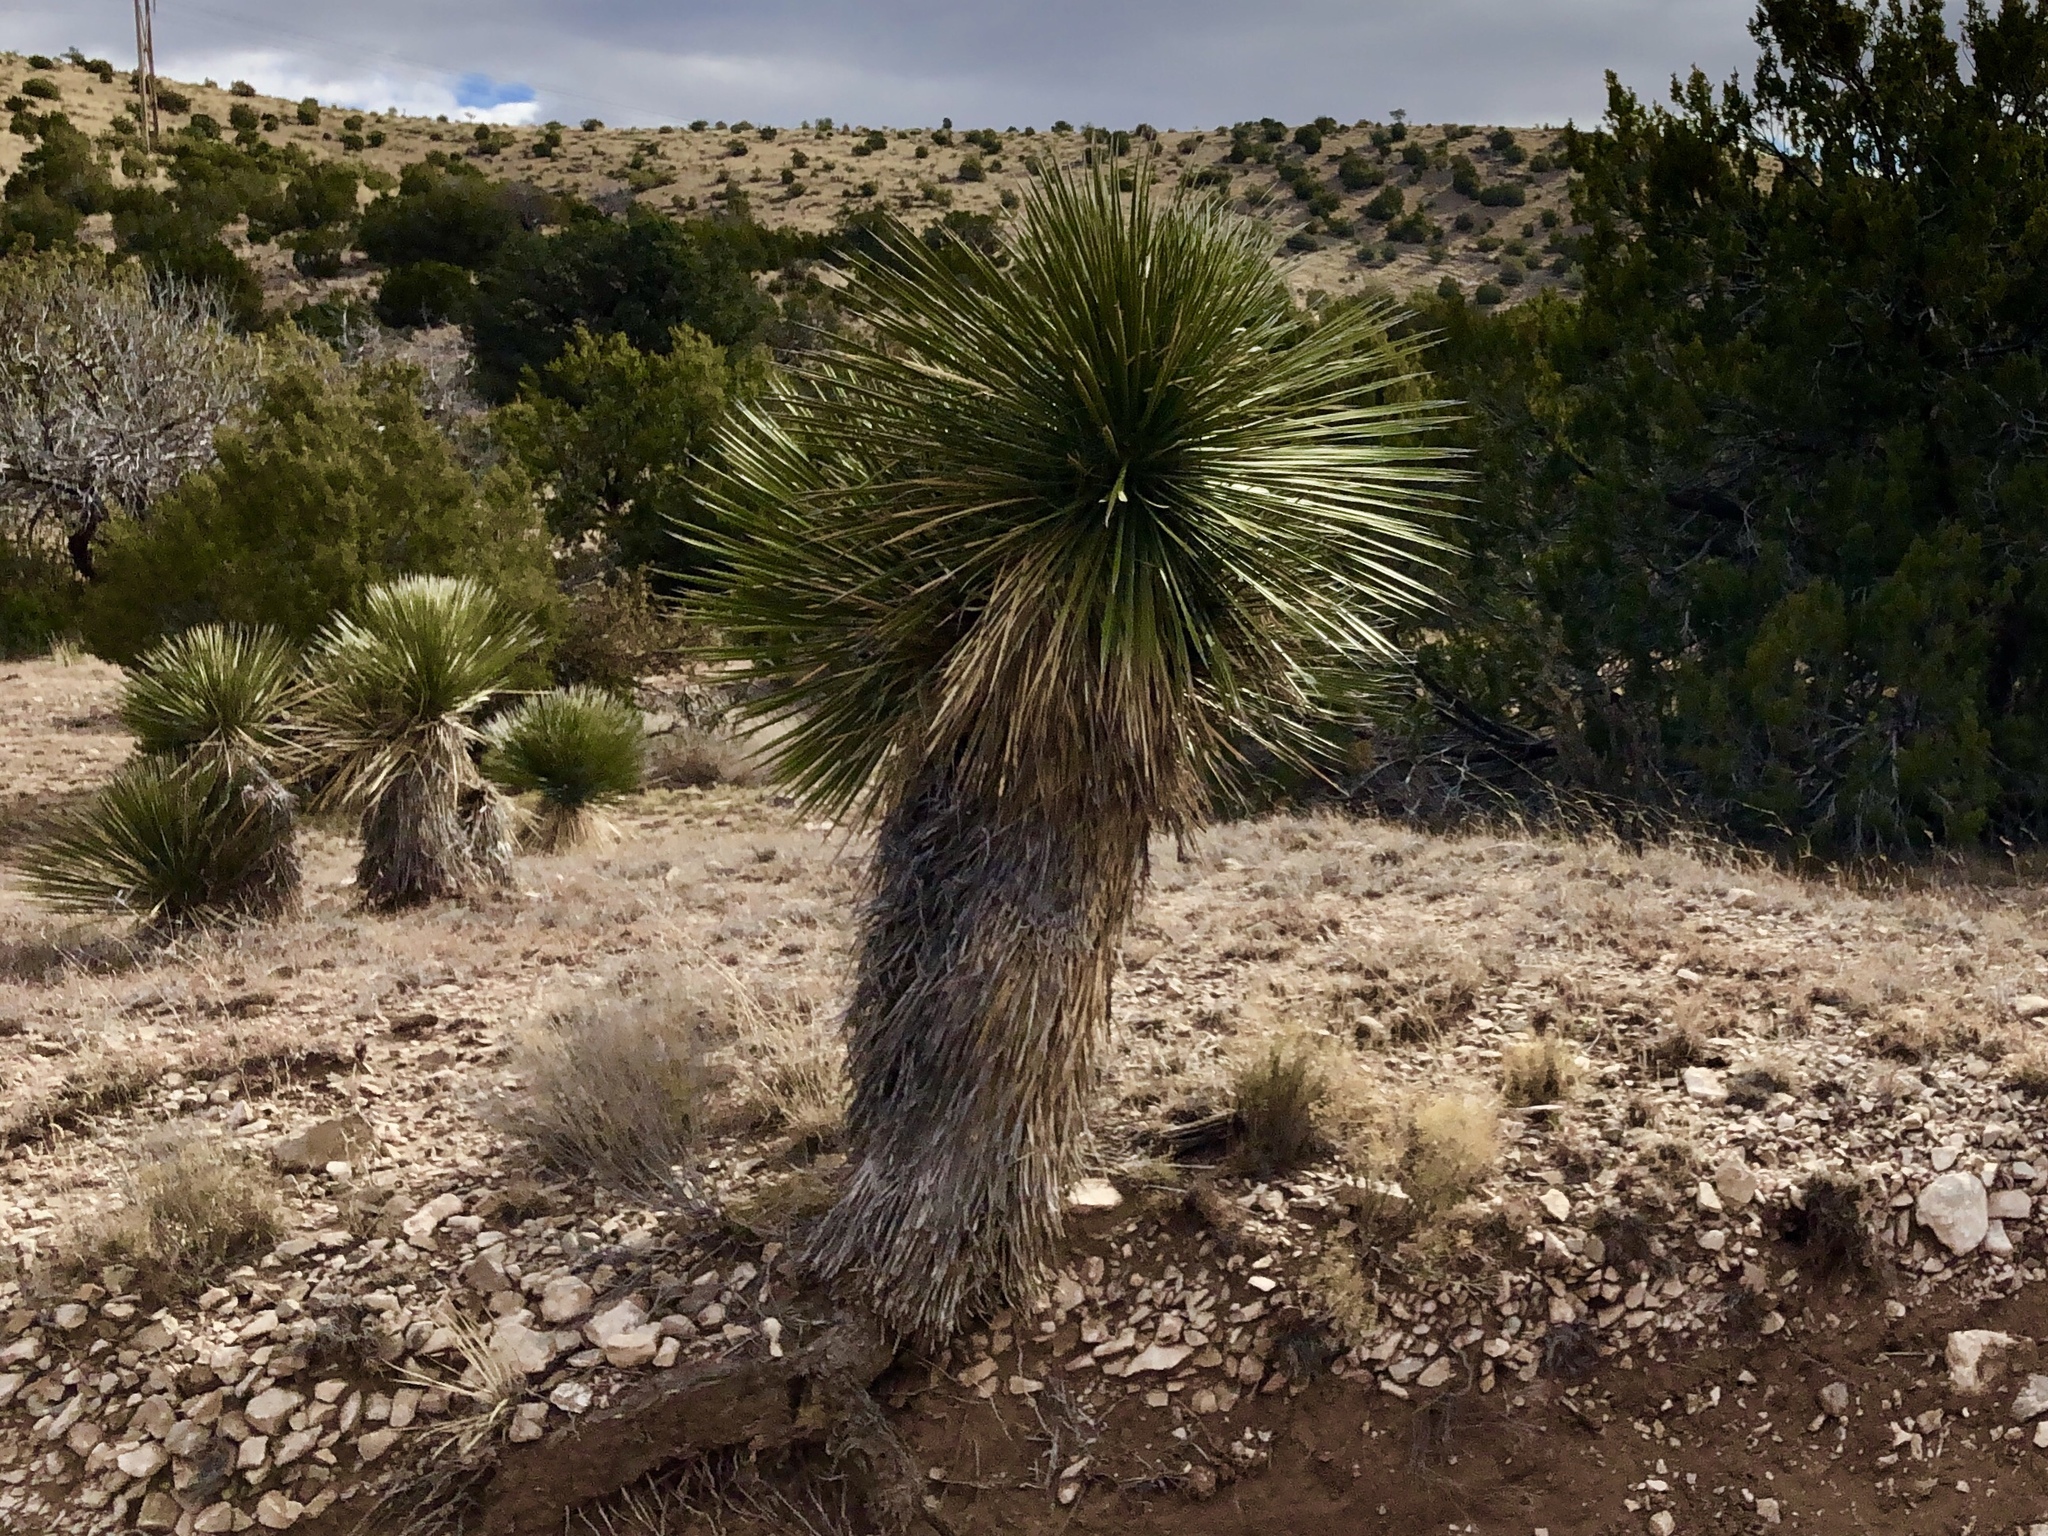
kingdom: Plantae
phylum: Tracheophyta
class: Liliopsida
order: Asparagales
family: Asparagaceae
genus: Yucca
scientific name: Yucca elata
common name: Palmella
